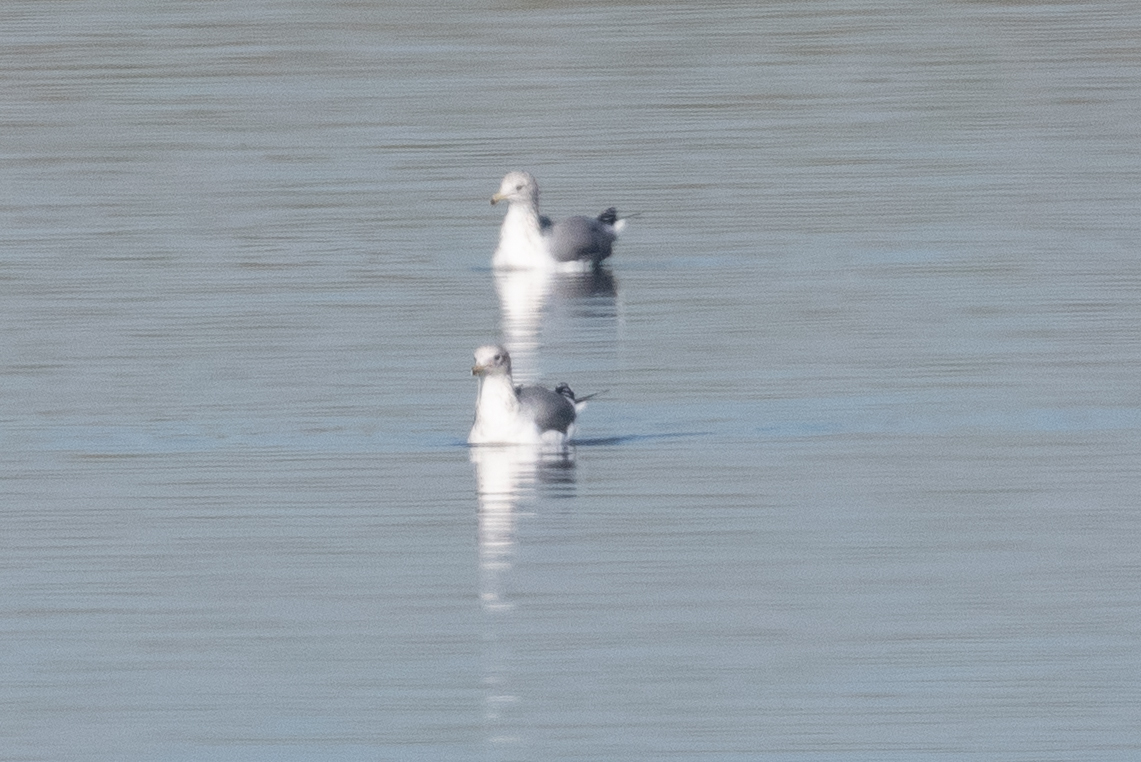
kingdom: Animalia
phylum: Chordata
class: Aves
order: Charadriiformes
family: Laridae
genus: Larus
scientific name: Larus californicus
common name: California gull
